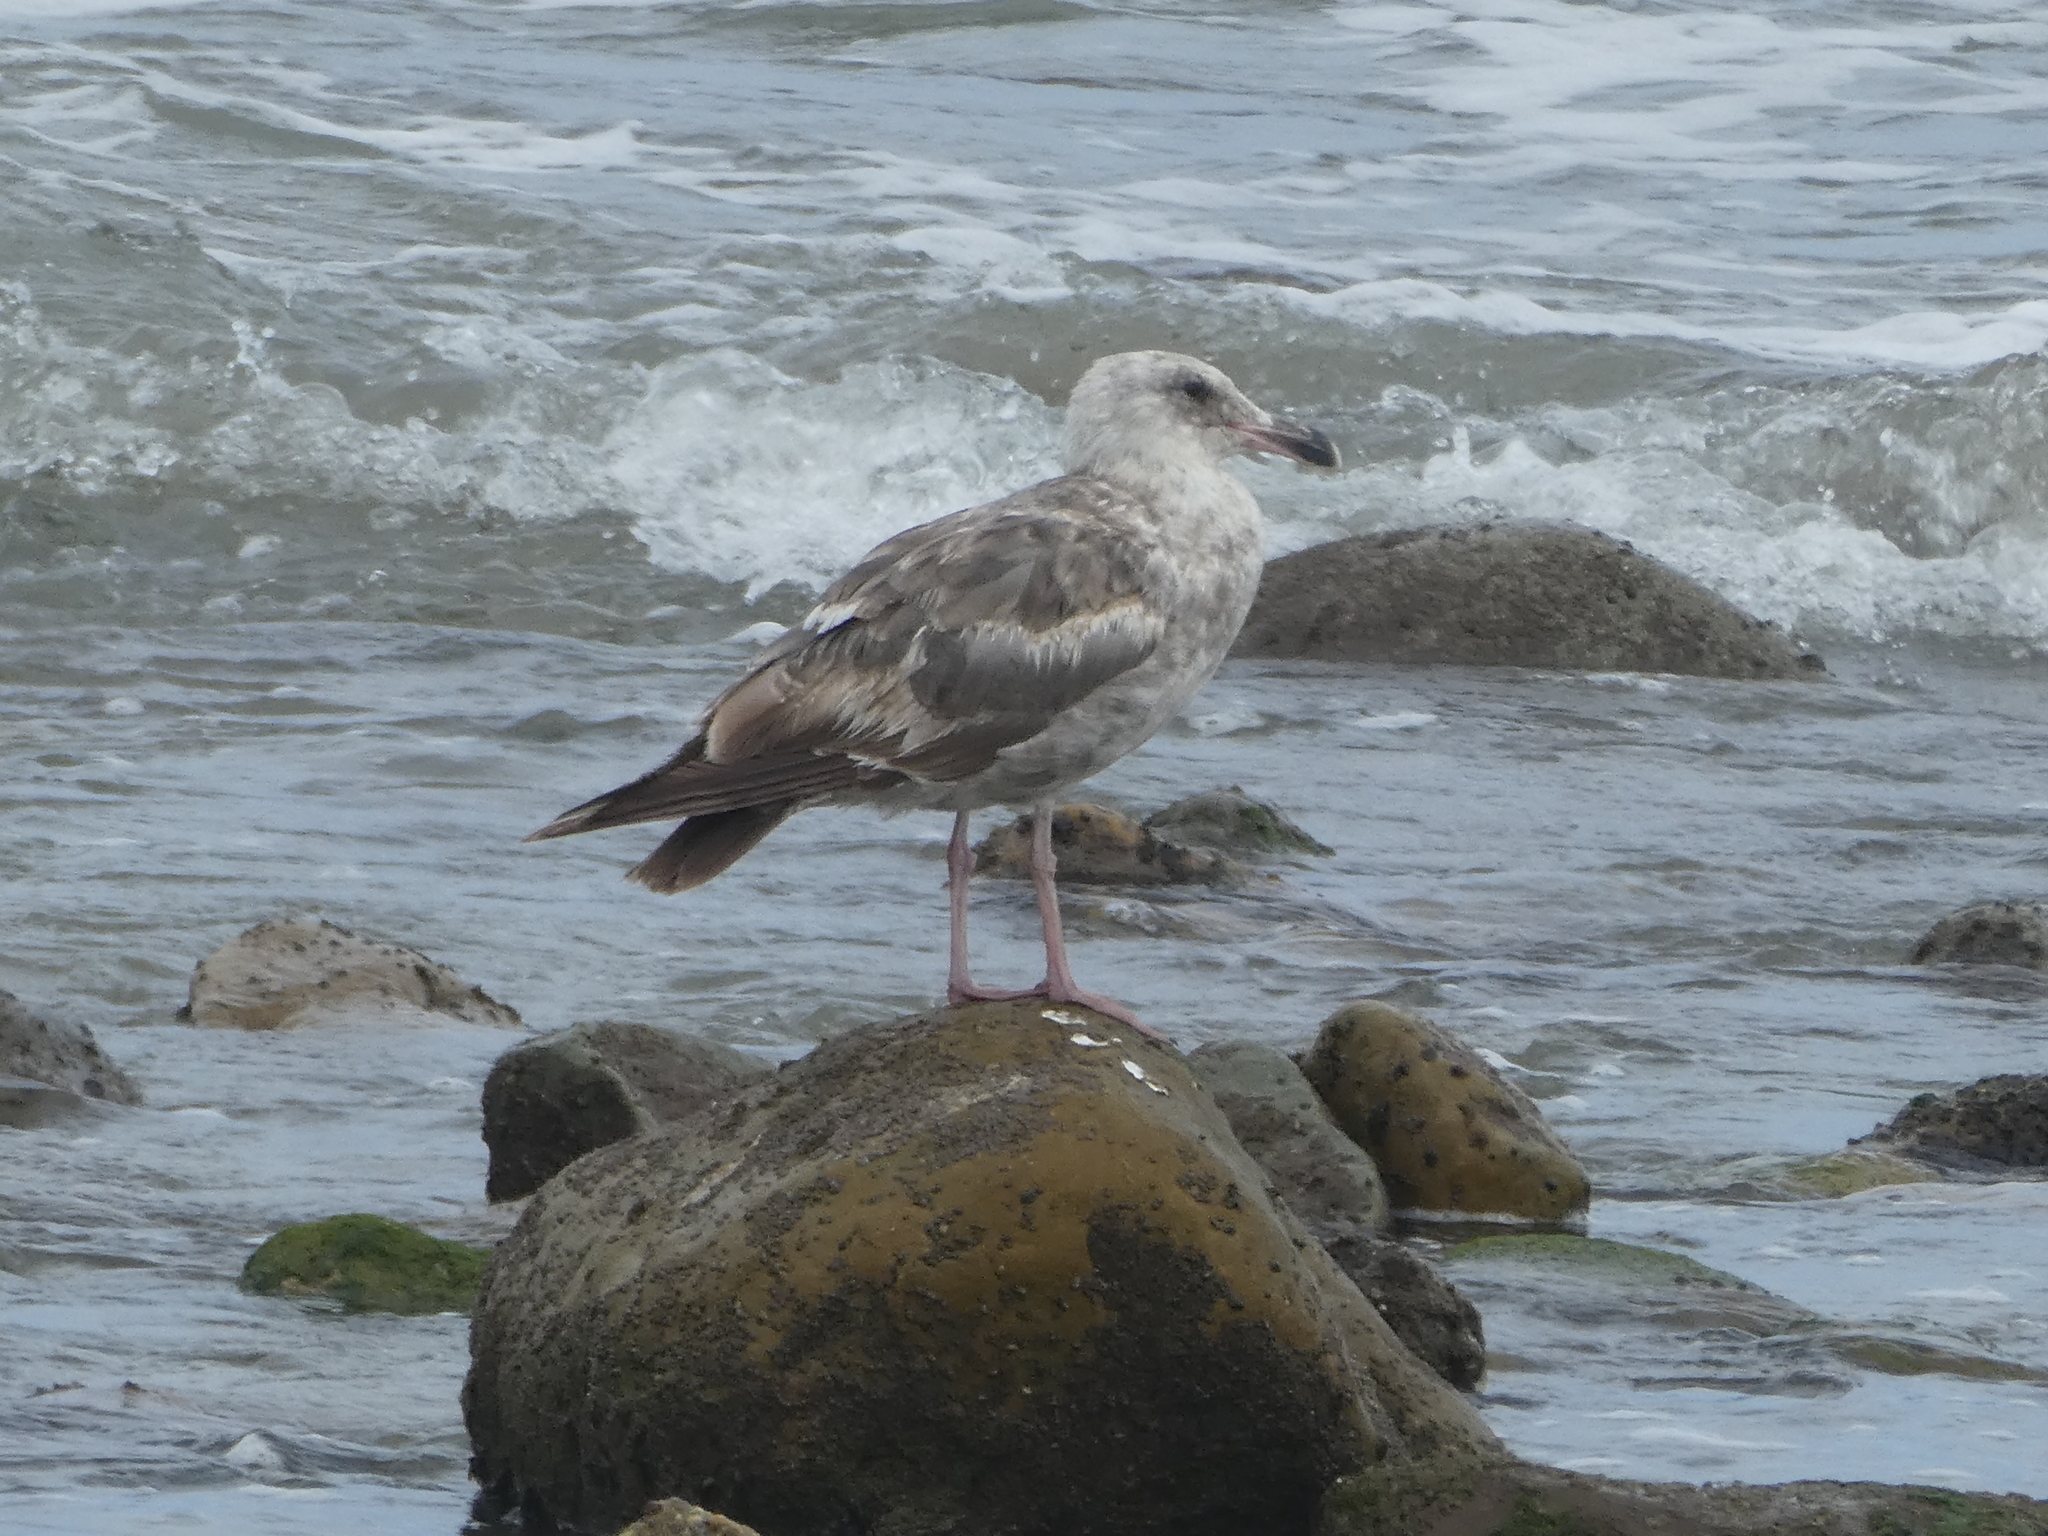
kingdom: Animalia
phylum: Chordata
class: Aves
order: Charadriiformes
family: Laridae
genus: Larus
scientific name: Larus occidentalis
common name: Western gull
